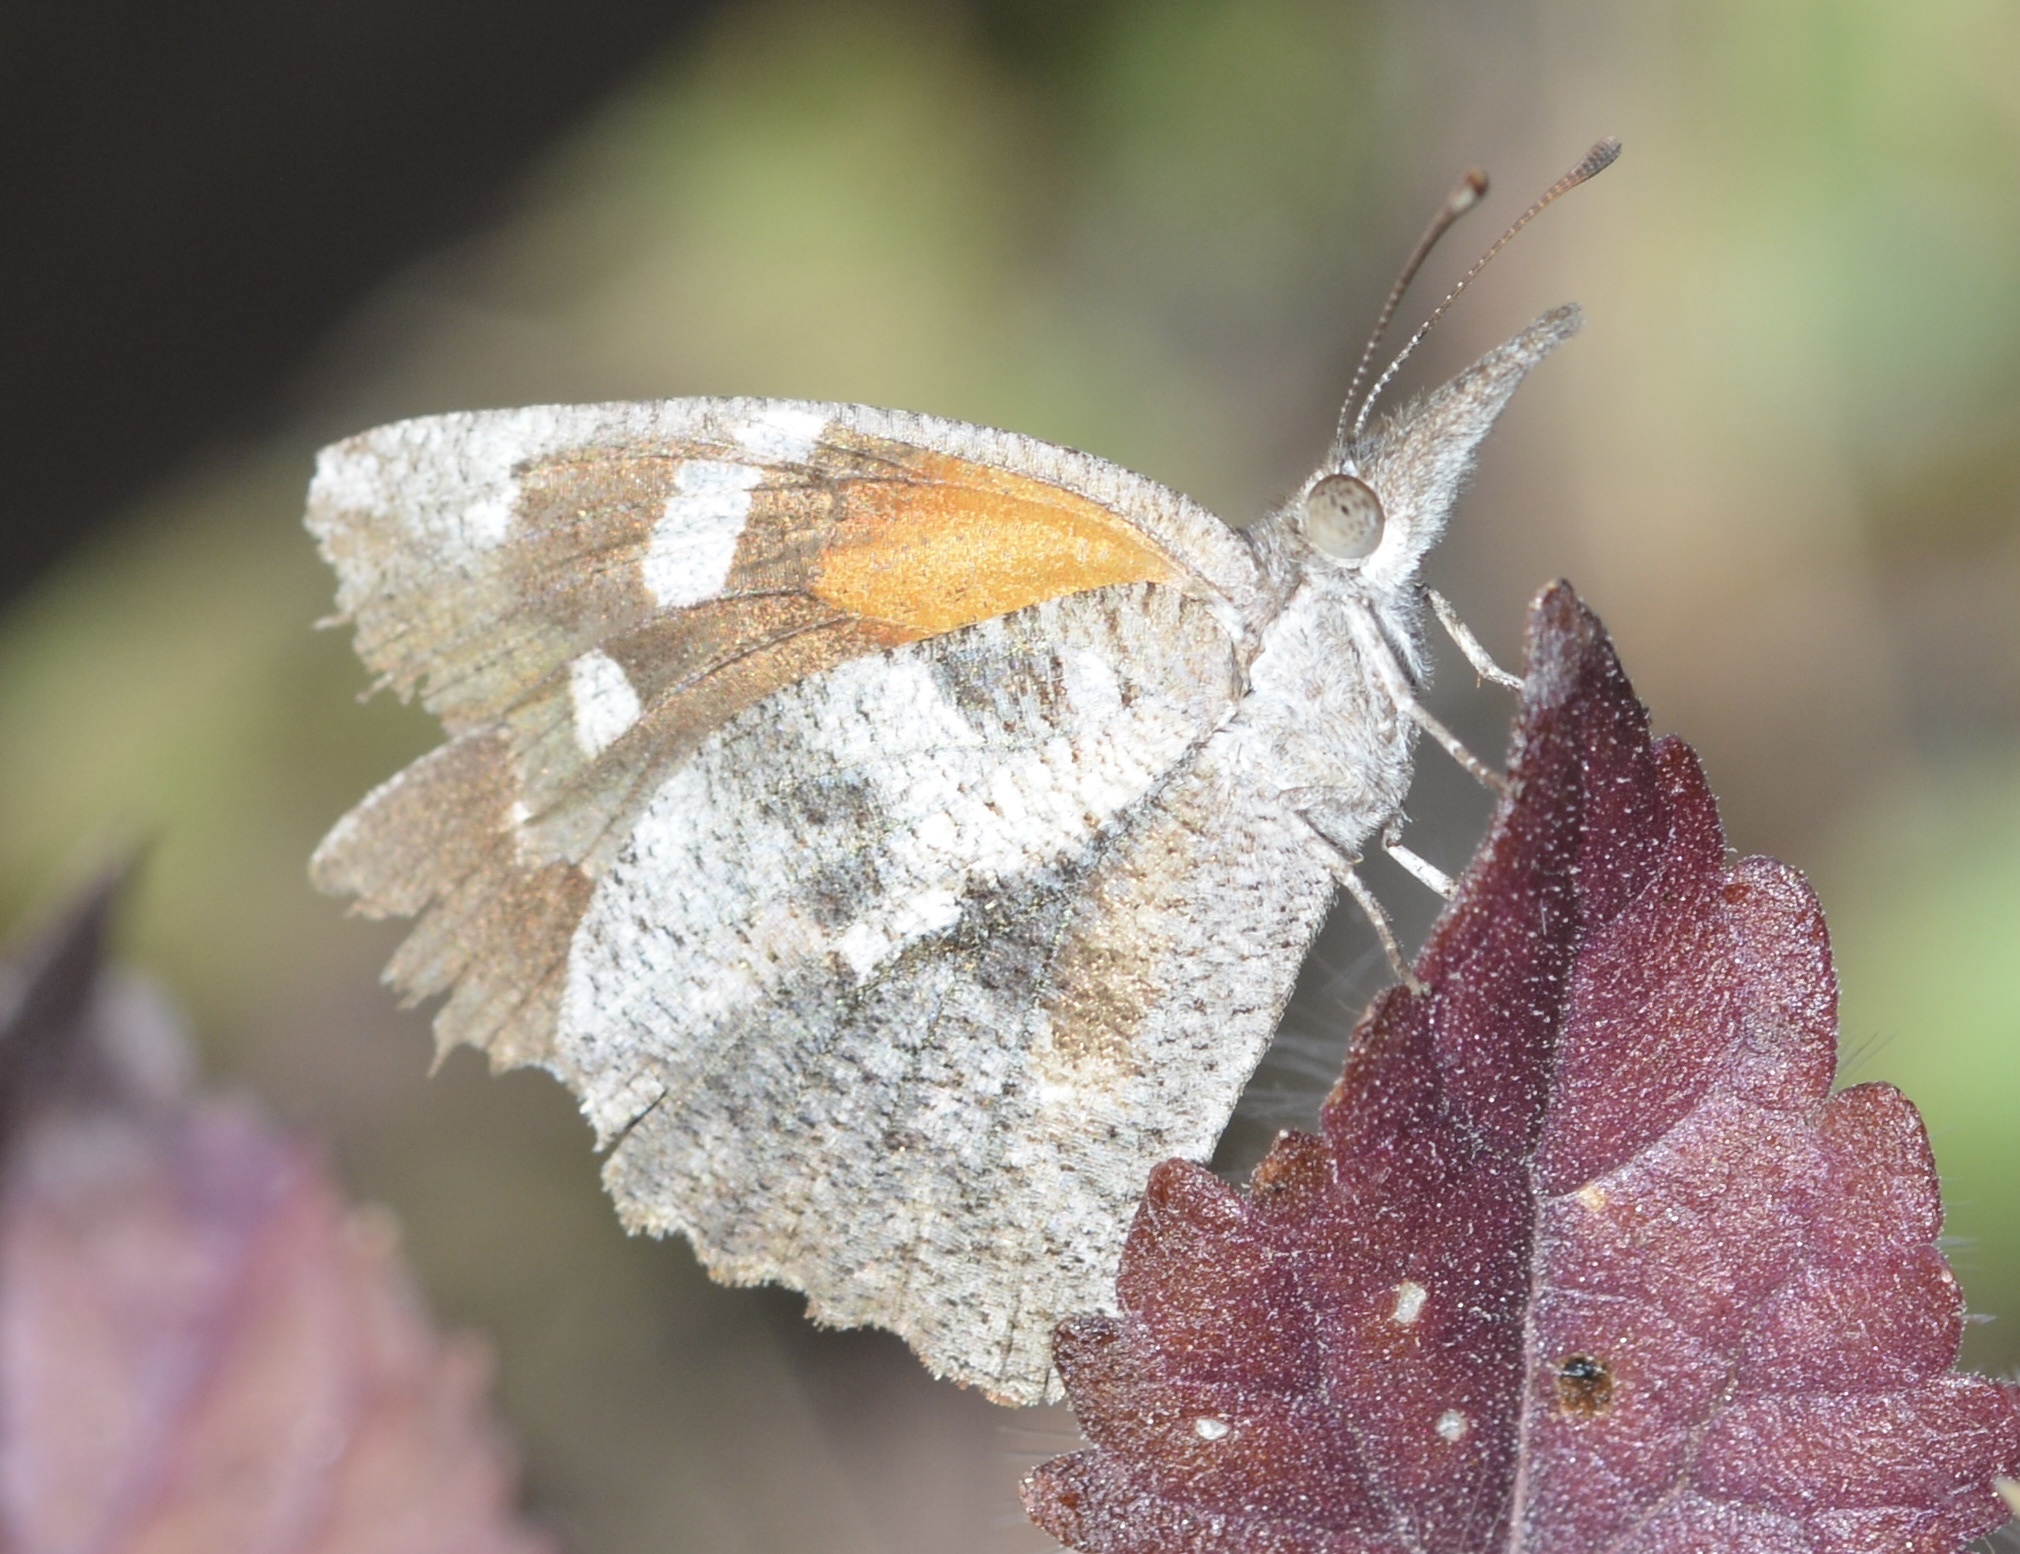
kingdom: Animalia
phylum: Arthropoda
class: Insecta
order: Lepidoptera
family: Nymphalidae
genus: Libytheana
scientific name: Libytheana carinenta
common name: American snout
